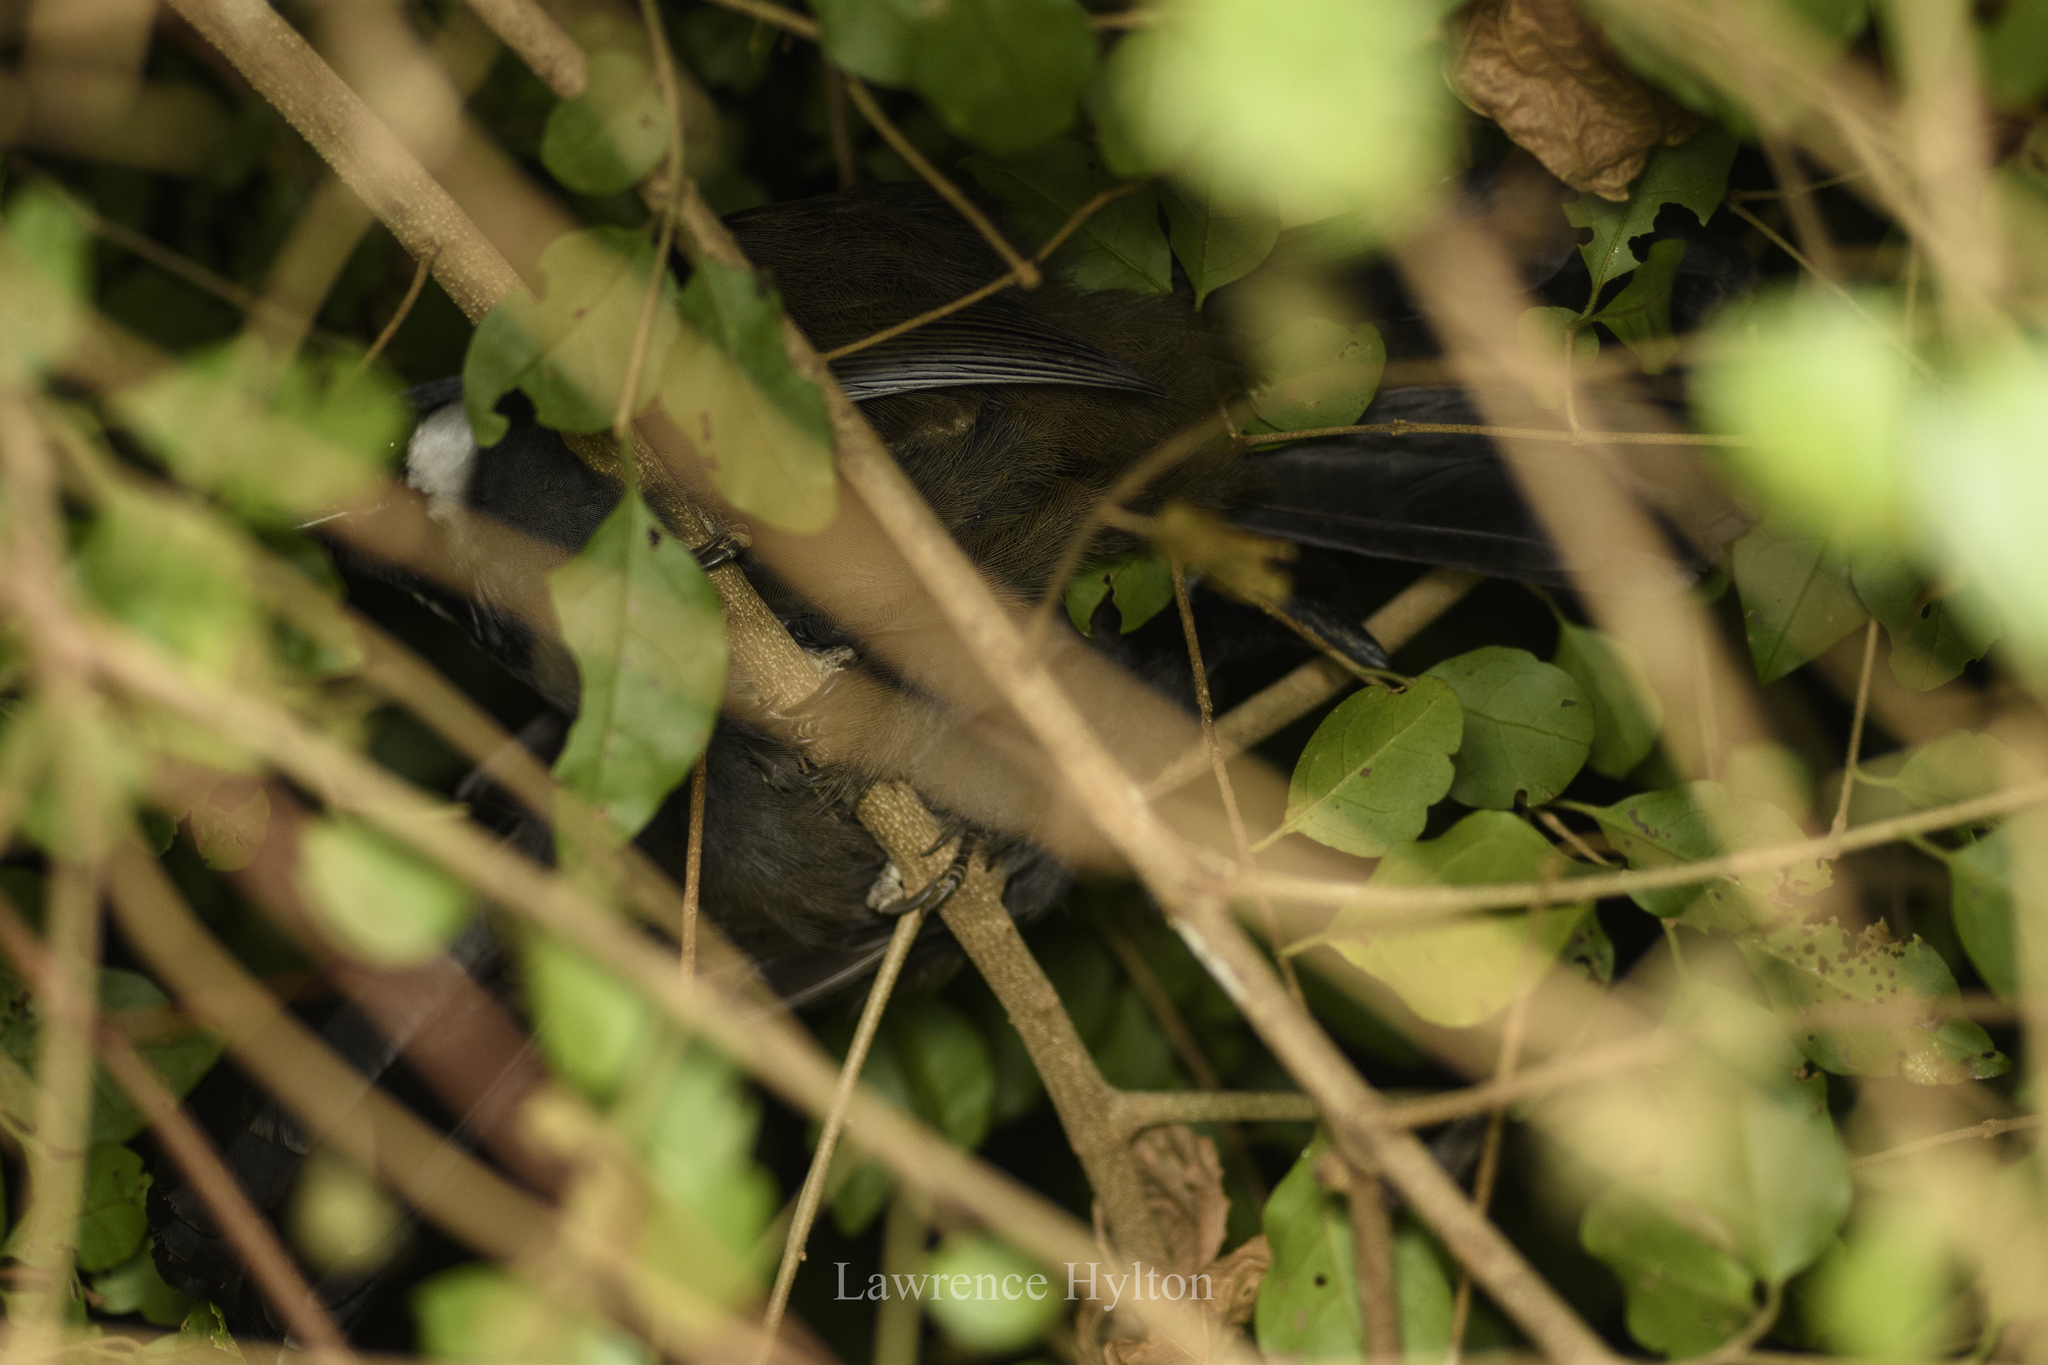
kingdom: Animalia
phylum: Chordata
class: Aves
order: Passeriformes
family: Leiothrichidae
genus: Garrulax
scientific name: Garrulax chinensis
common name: Black-throated laughingthrush
